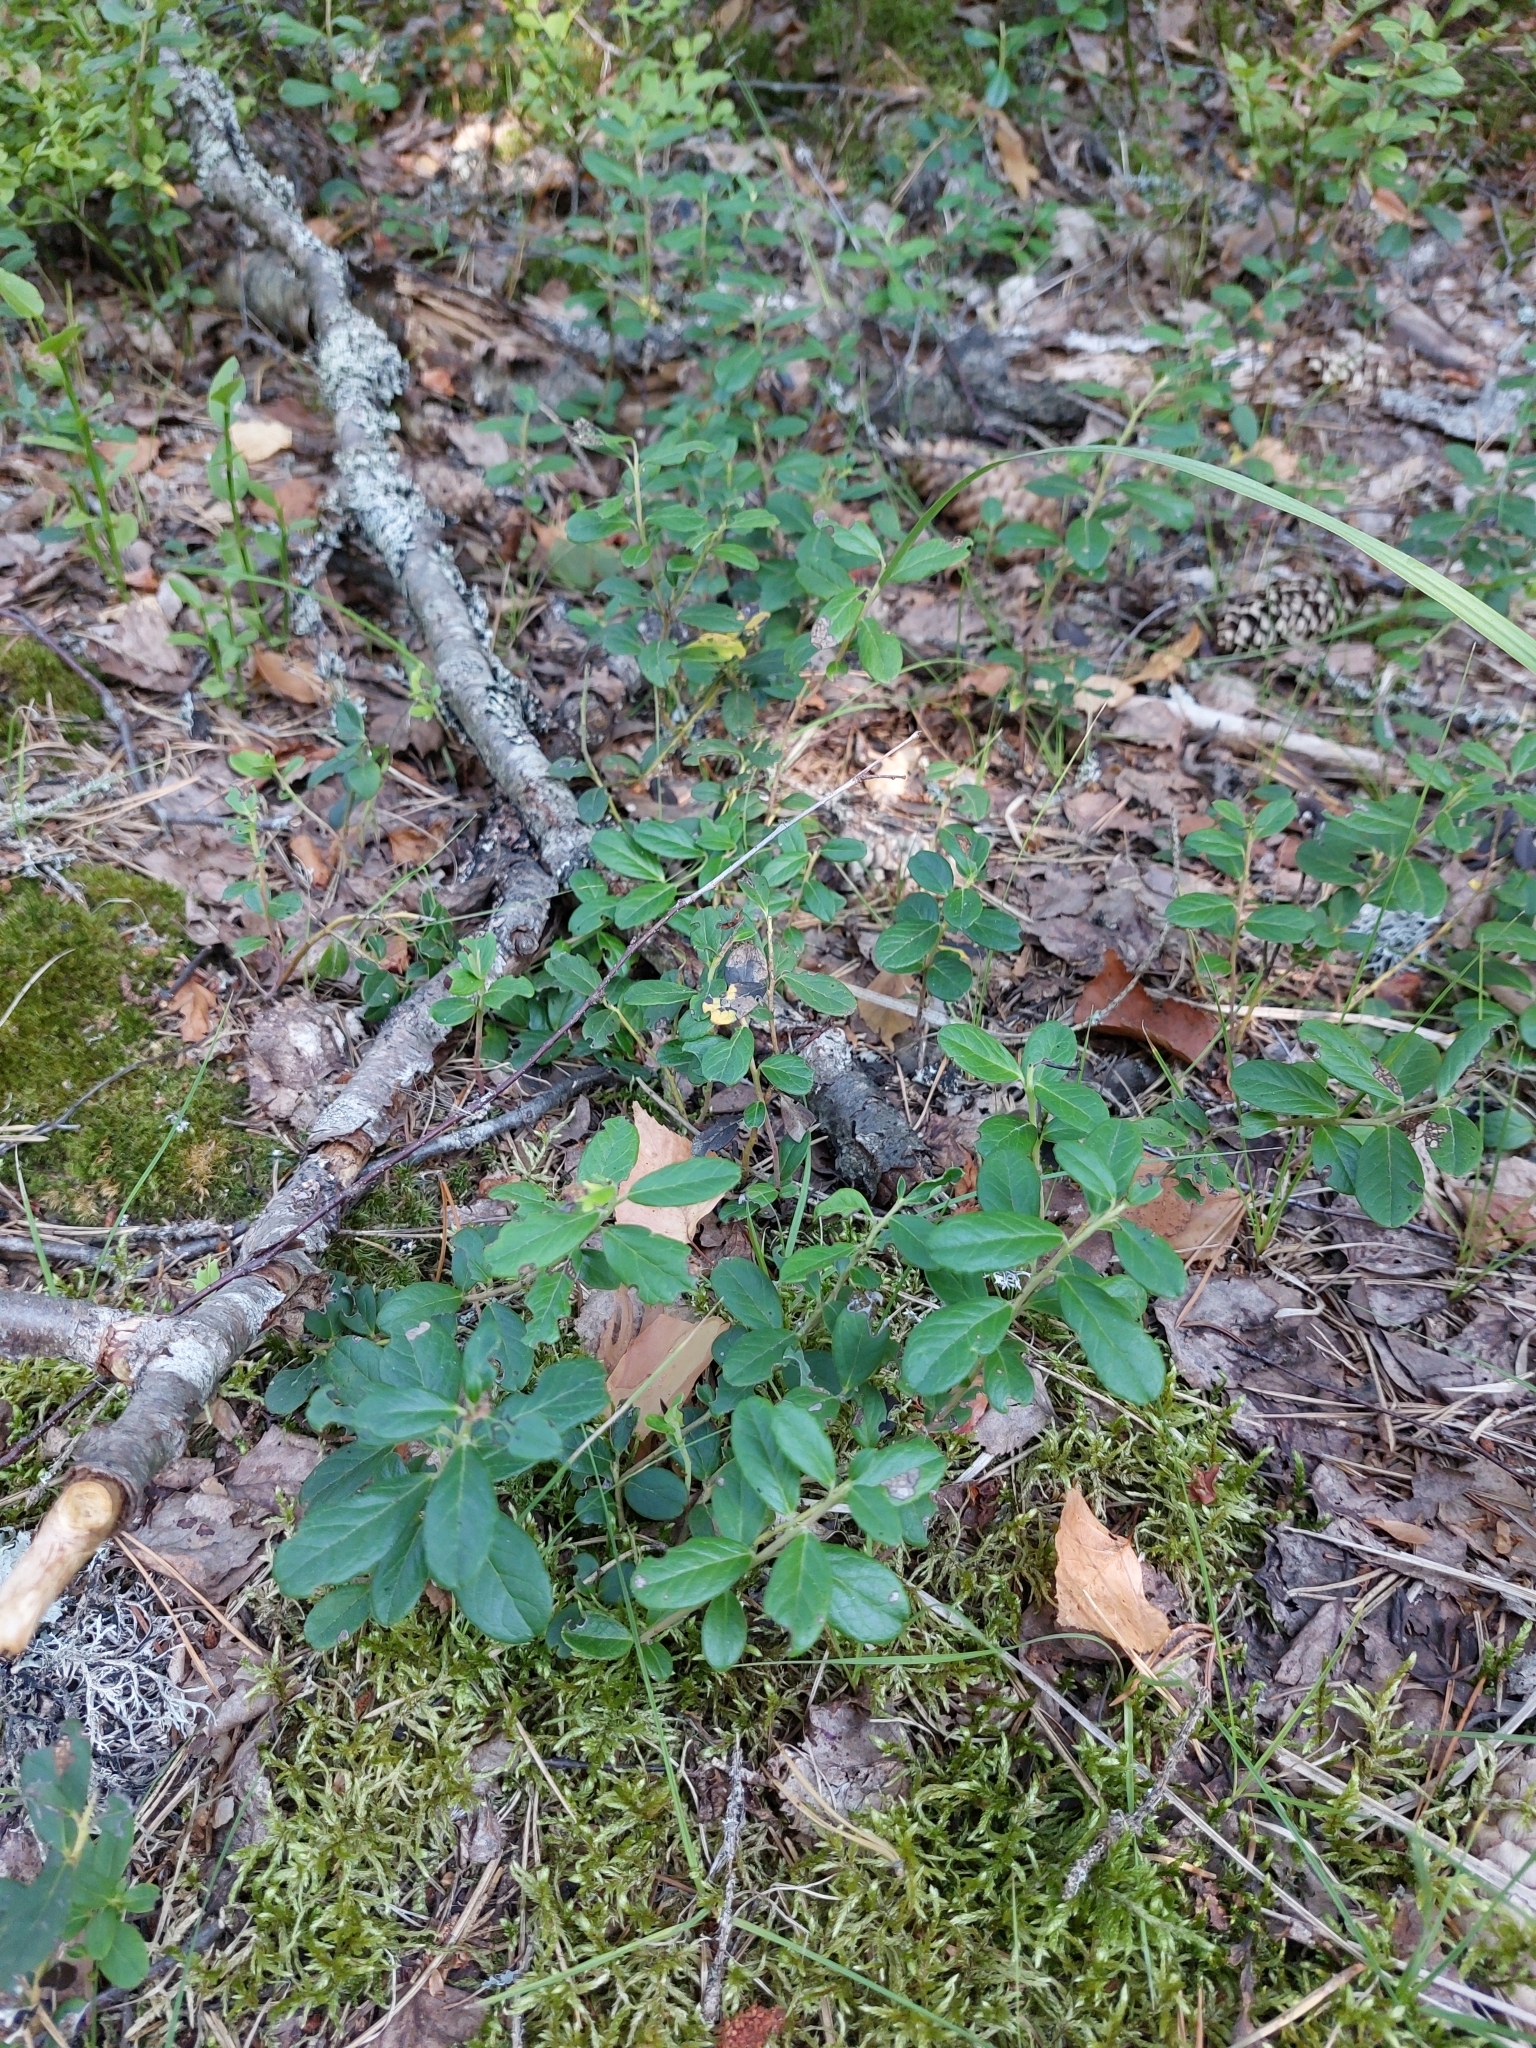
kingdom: Plantae
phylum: Tracheophyta
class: Magnoliopsida
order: Ericales
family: Ericaceae
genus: Vaccinium
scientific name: Vaccinium vitis-idaea
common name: Cowberry
